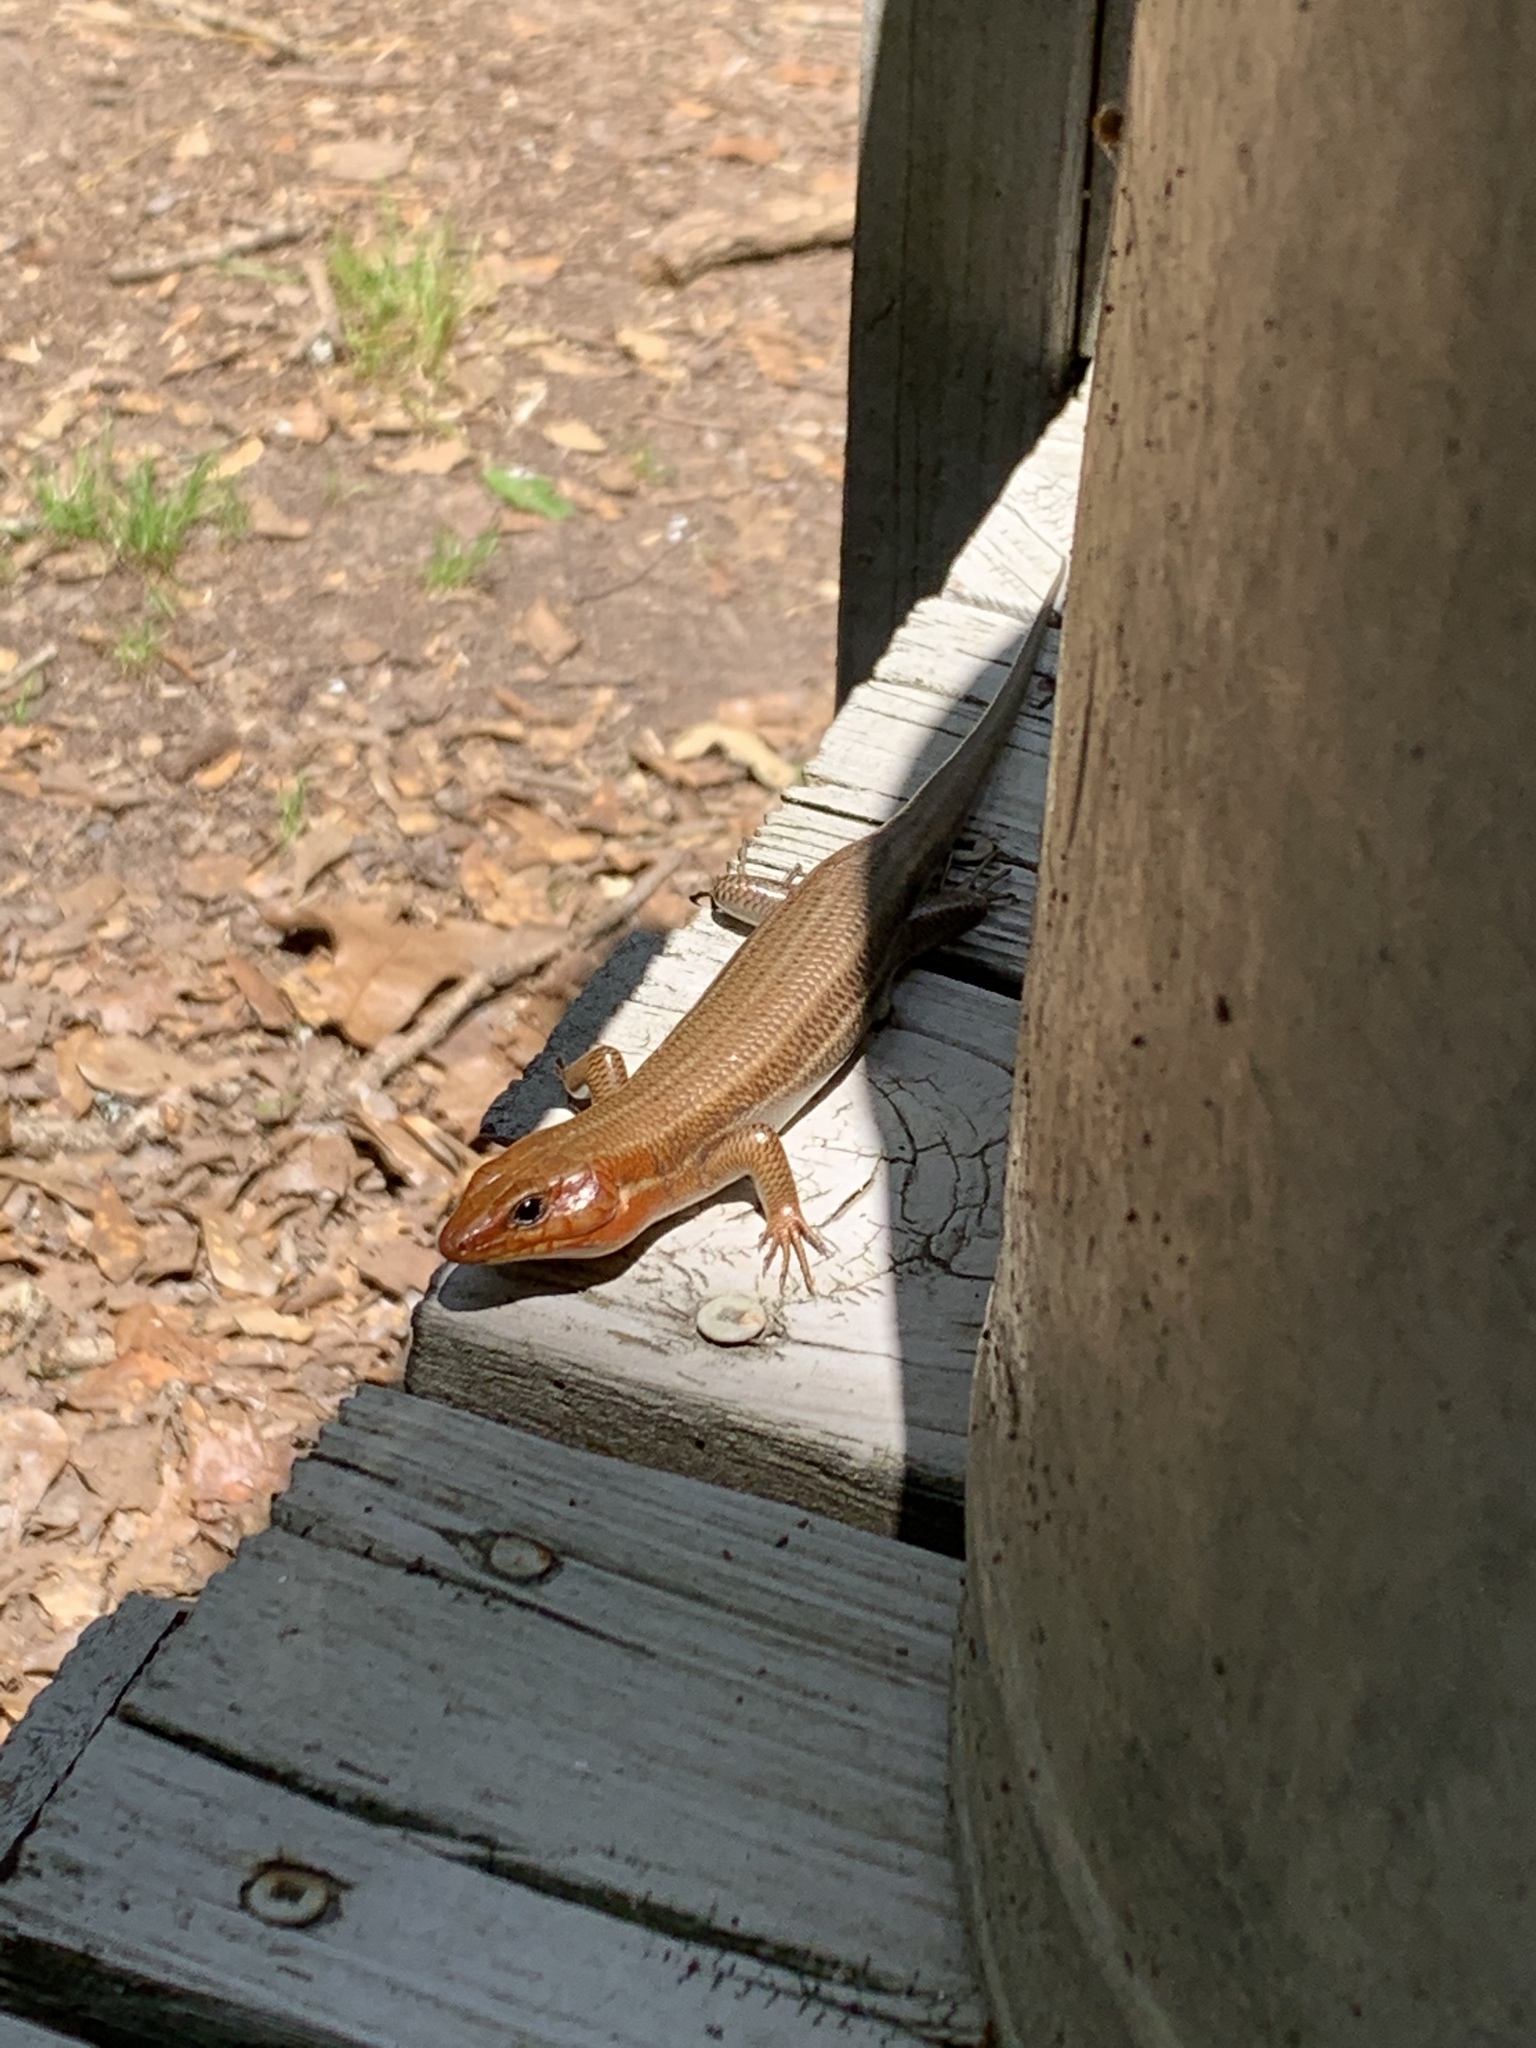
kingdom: Animalia
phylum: Chordata
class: Squamata
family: Scincidae
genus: Plestiodon
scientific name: Plestiodon laticeps
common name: Broadhead skink
